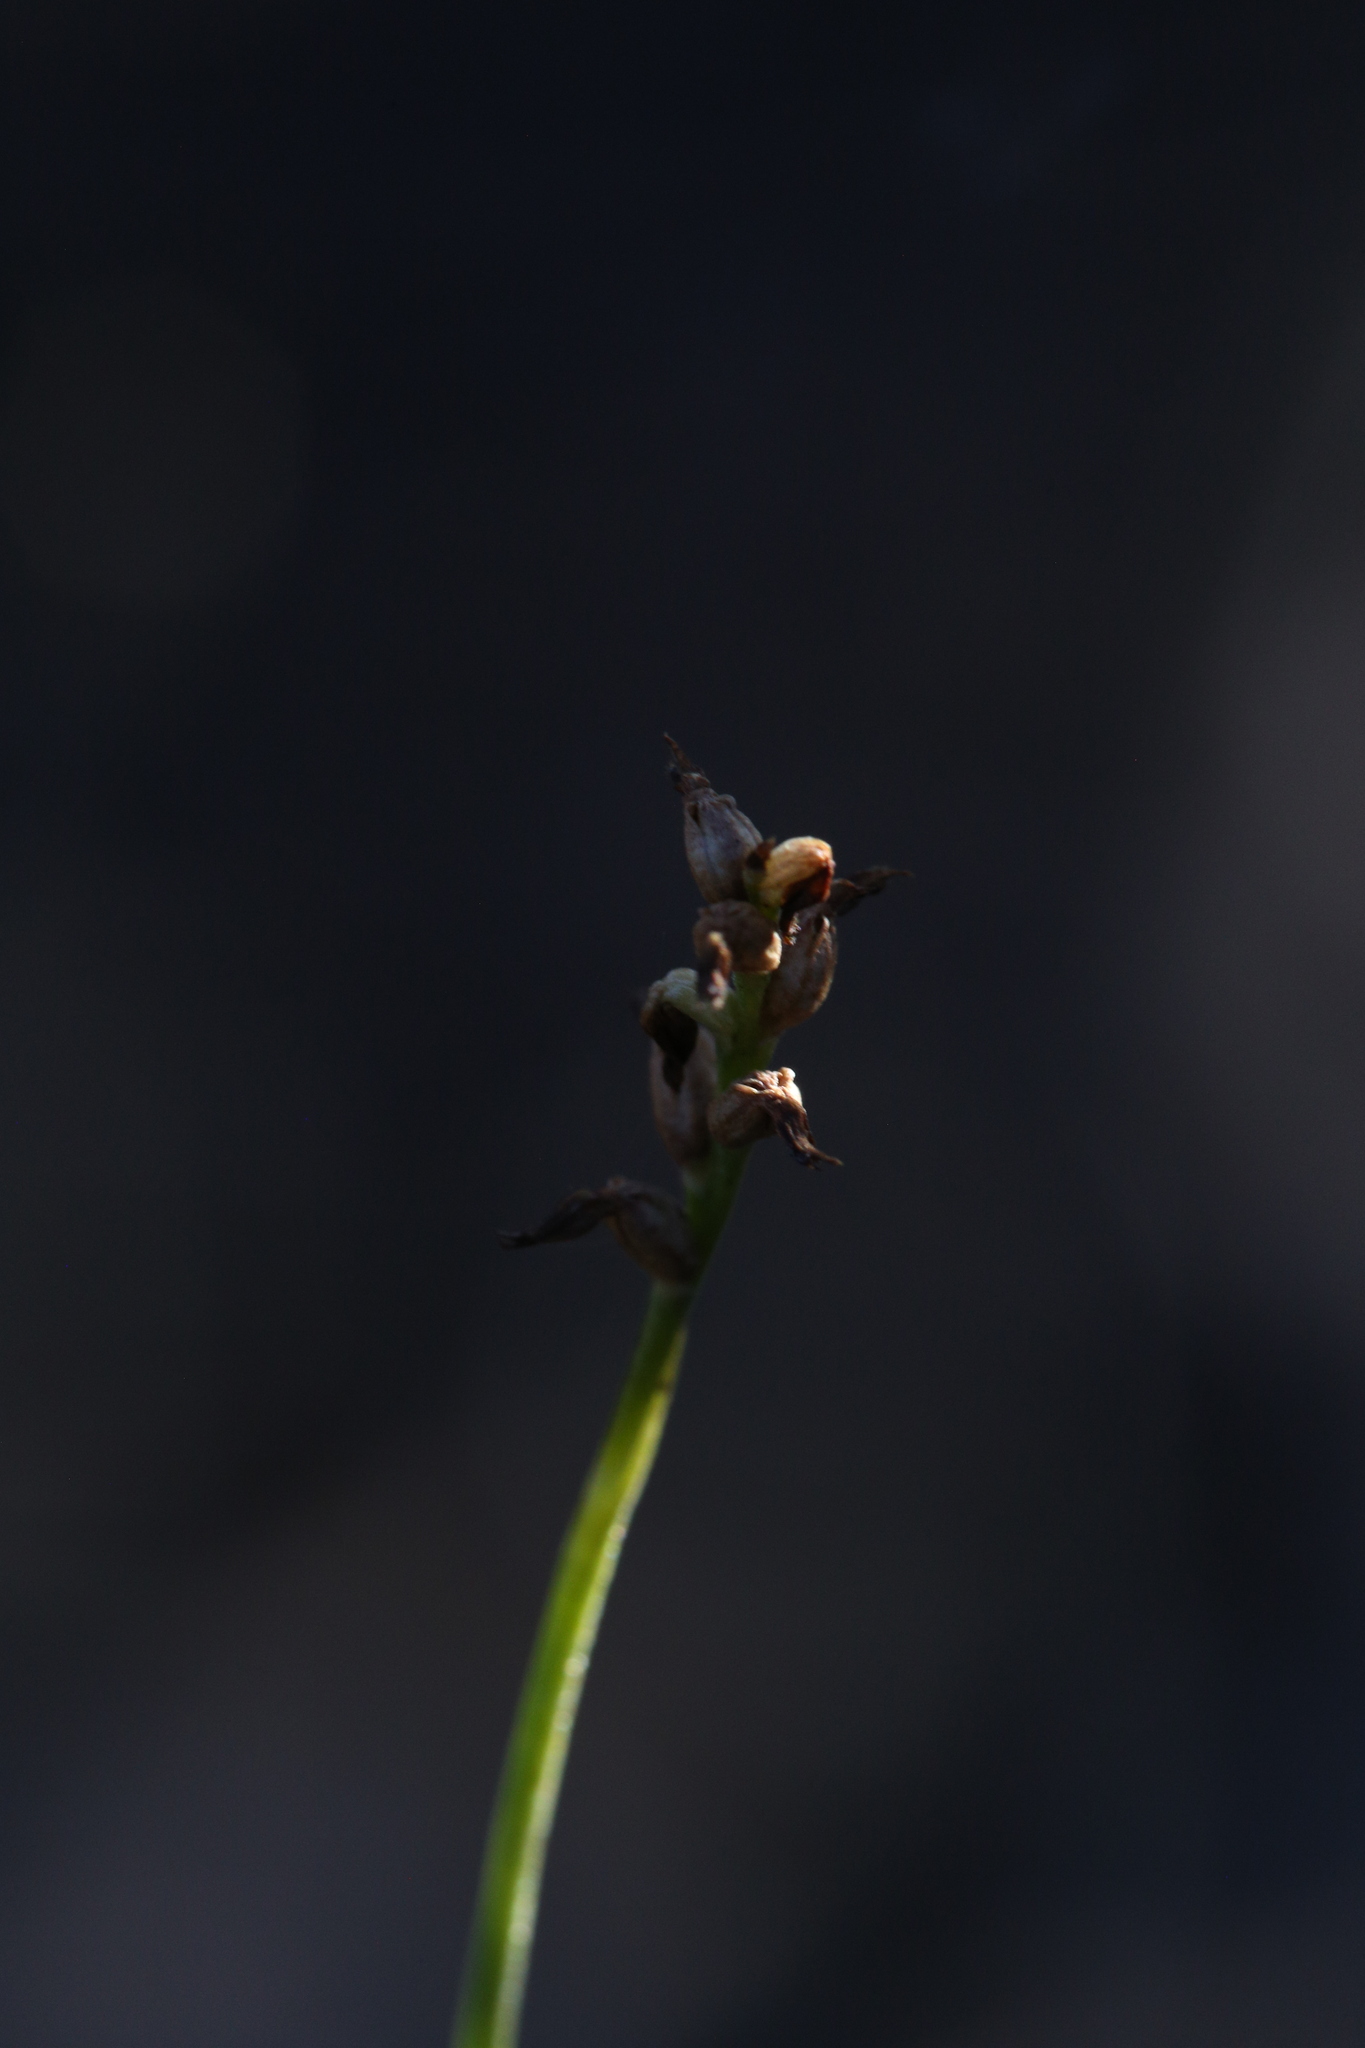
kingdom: Plantae
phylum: Tracheophyta
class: Liliopsida
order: Asparagales
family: Orchidaceae
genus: Genoplesium
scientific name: Genoplesium nigricans
